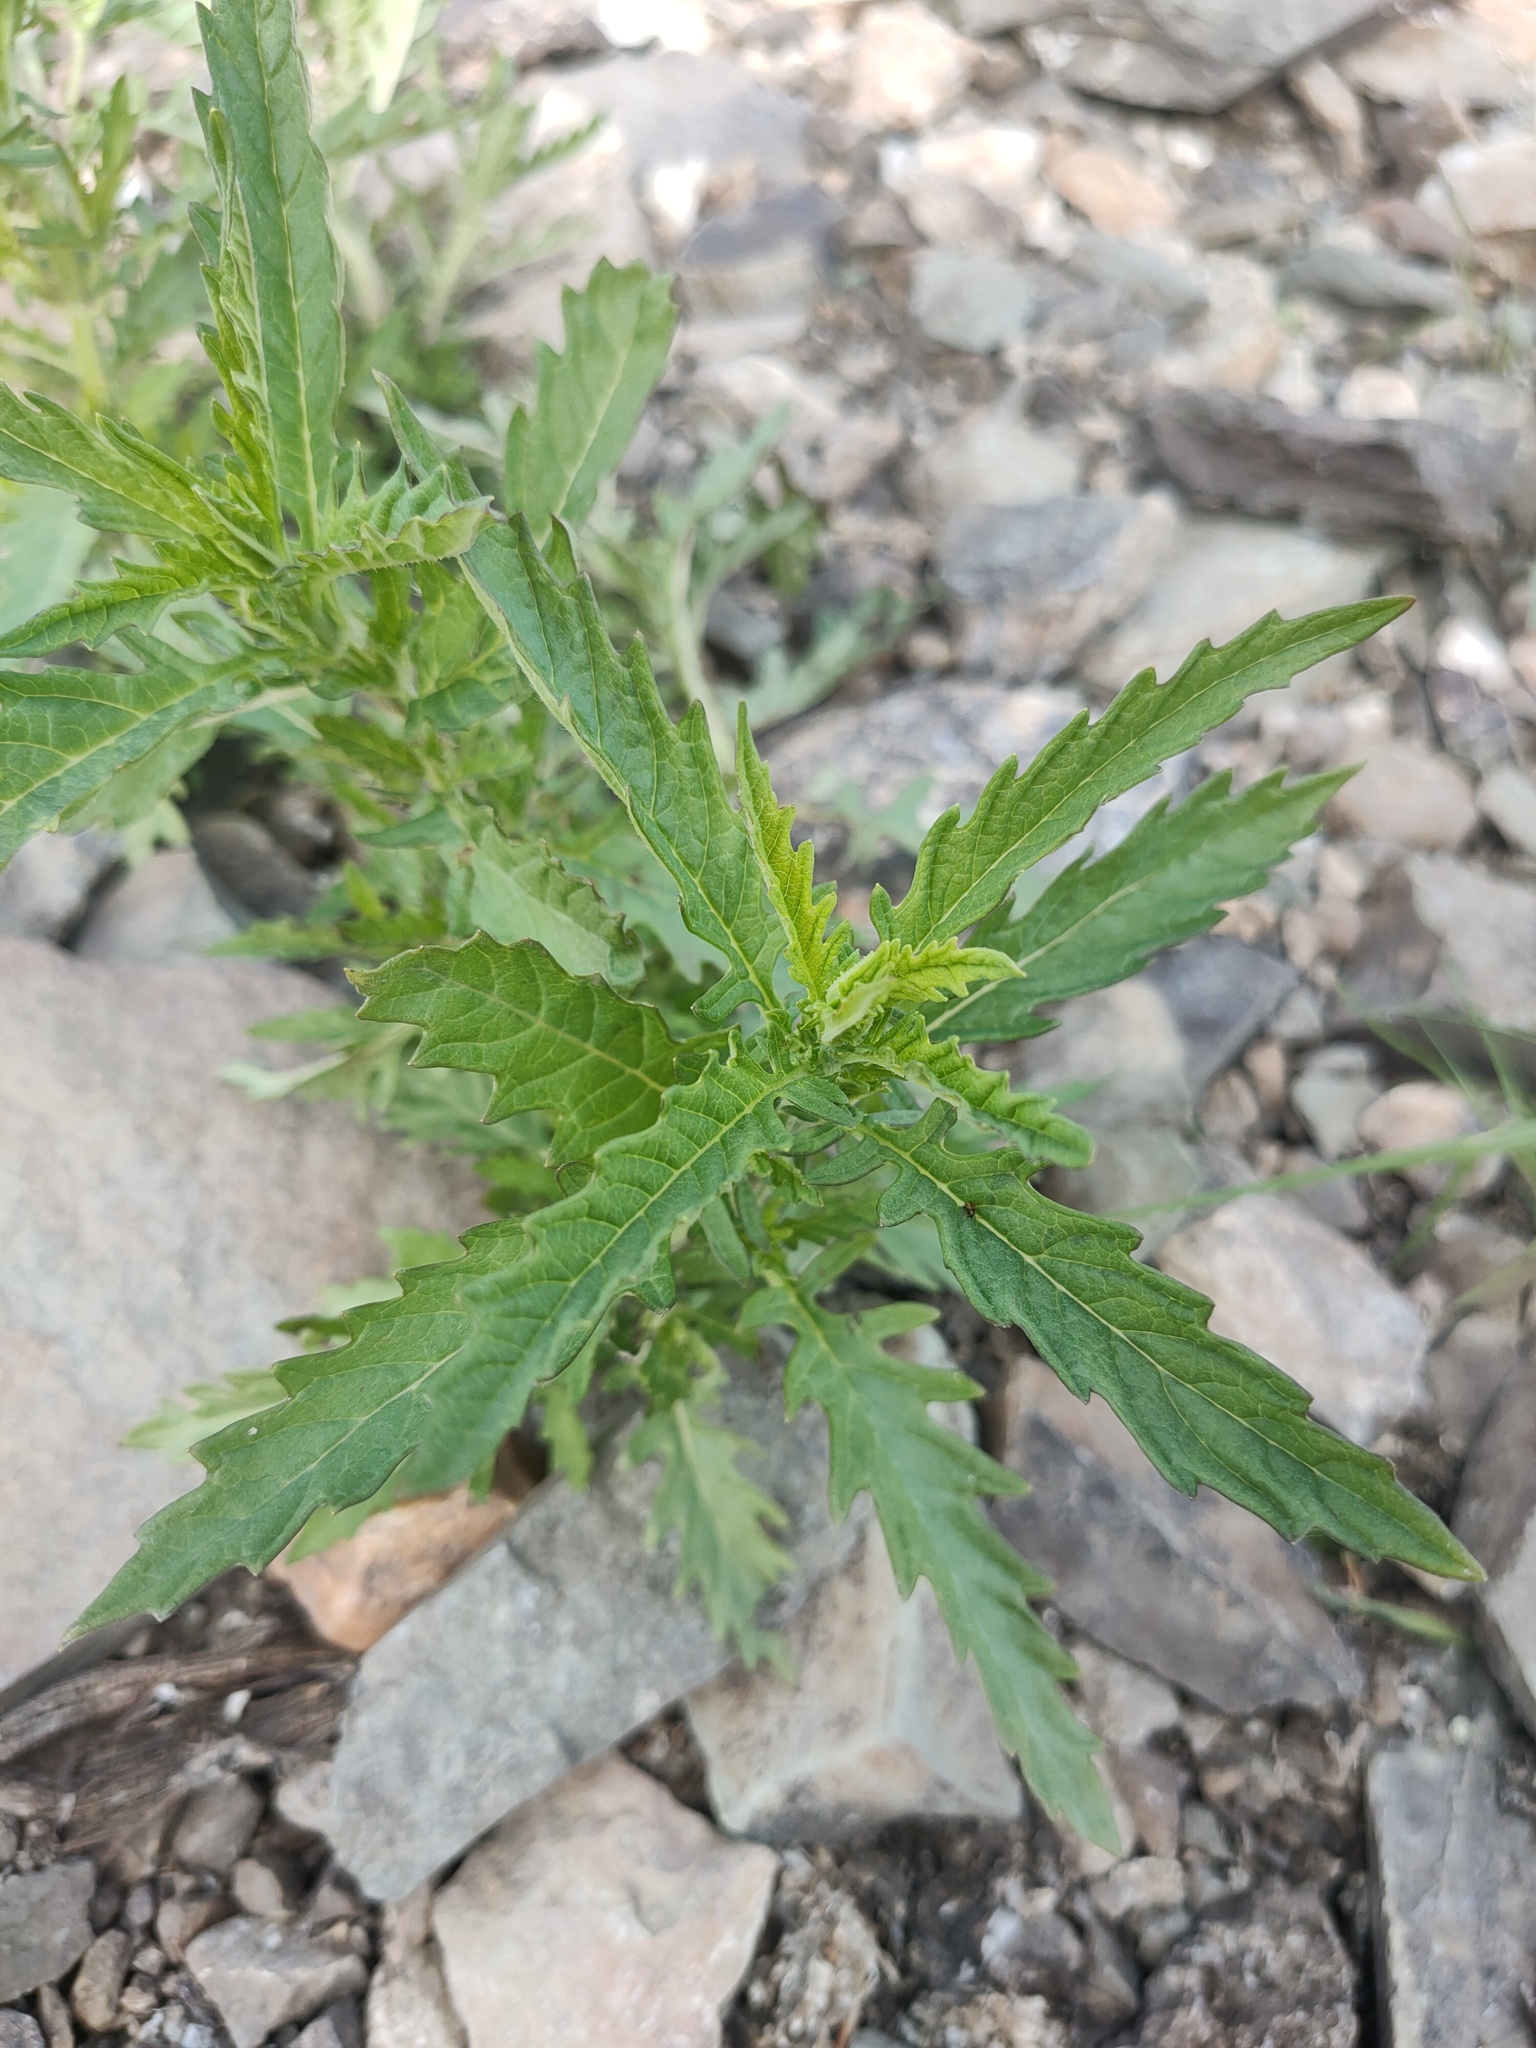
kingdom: Plantae
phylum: Tracheophyta
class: Magnoliopsida
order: Lamiales
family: Lamiaceae
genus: Lycopus
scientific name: Lycopus europaeus
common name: European bugleweed
